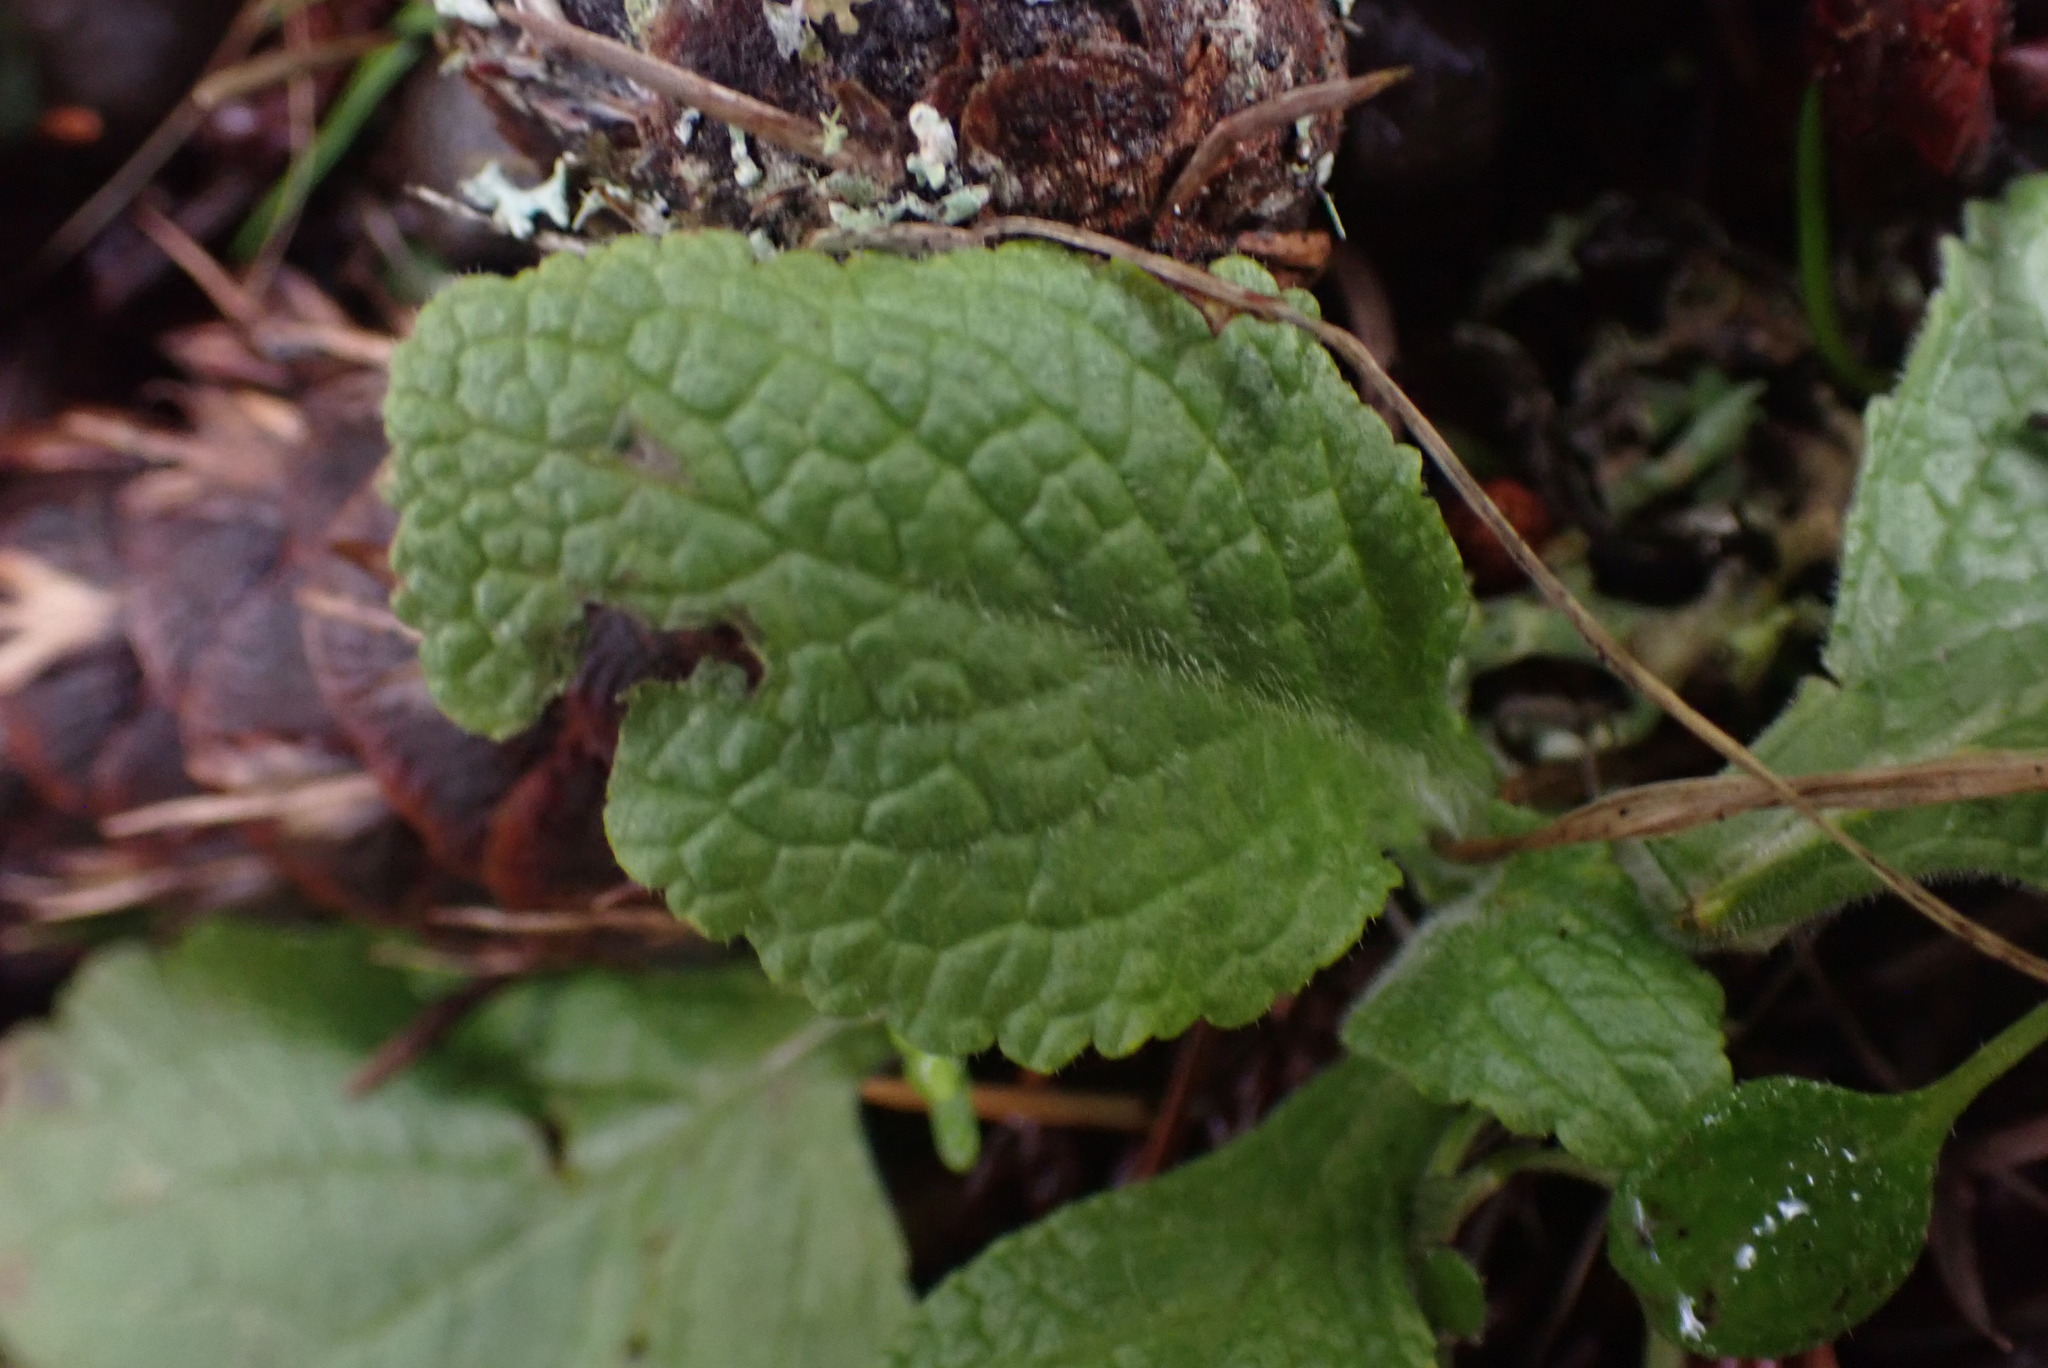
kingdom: Plantae
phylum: Tracheophyta
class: Magnoliopsida
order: Lamiales
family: Plantaginaceae
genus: Digitalis
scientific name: Digitalis purpurea
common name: Foxglove
